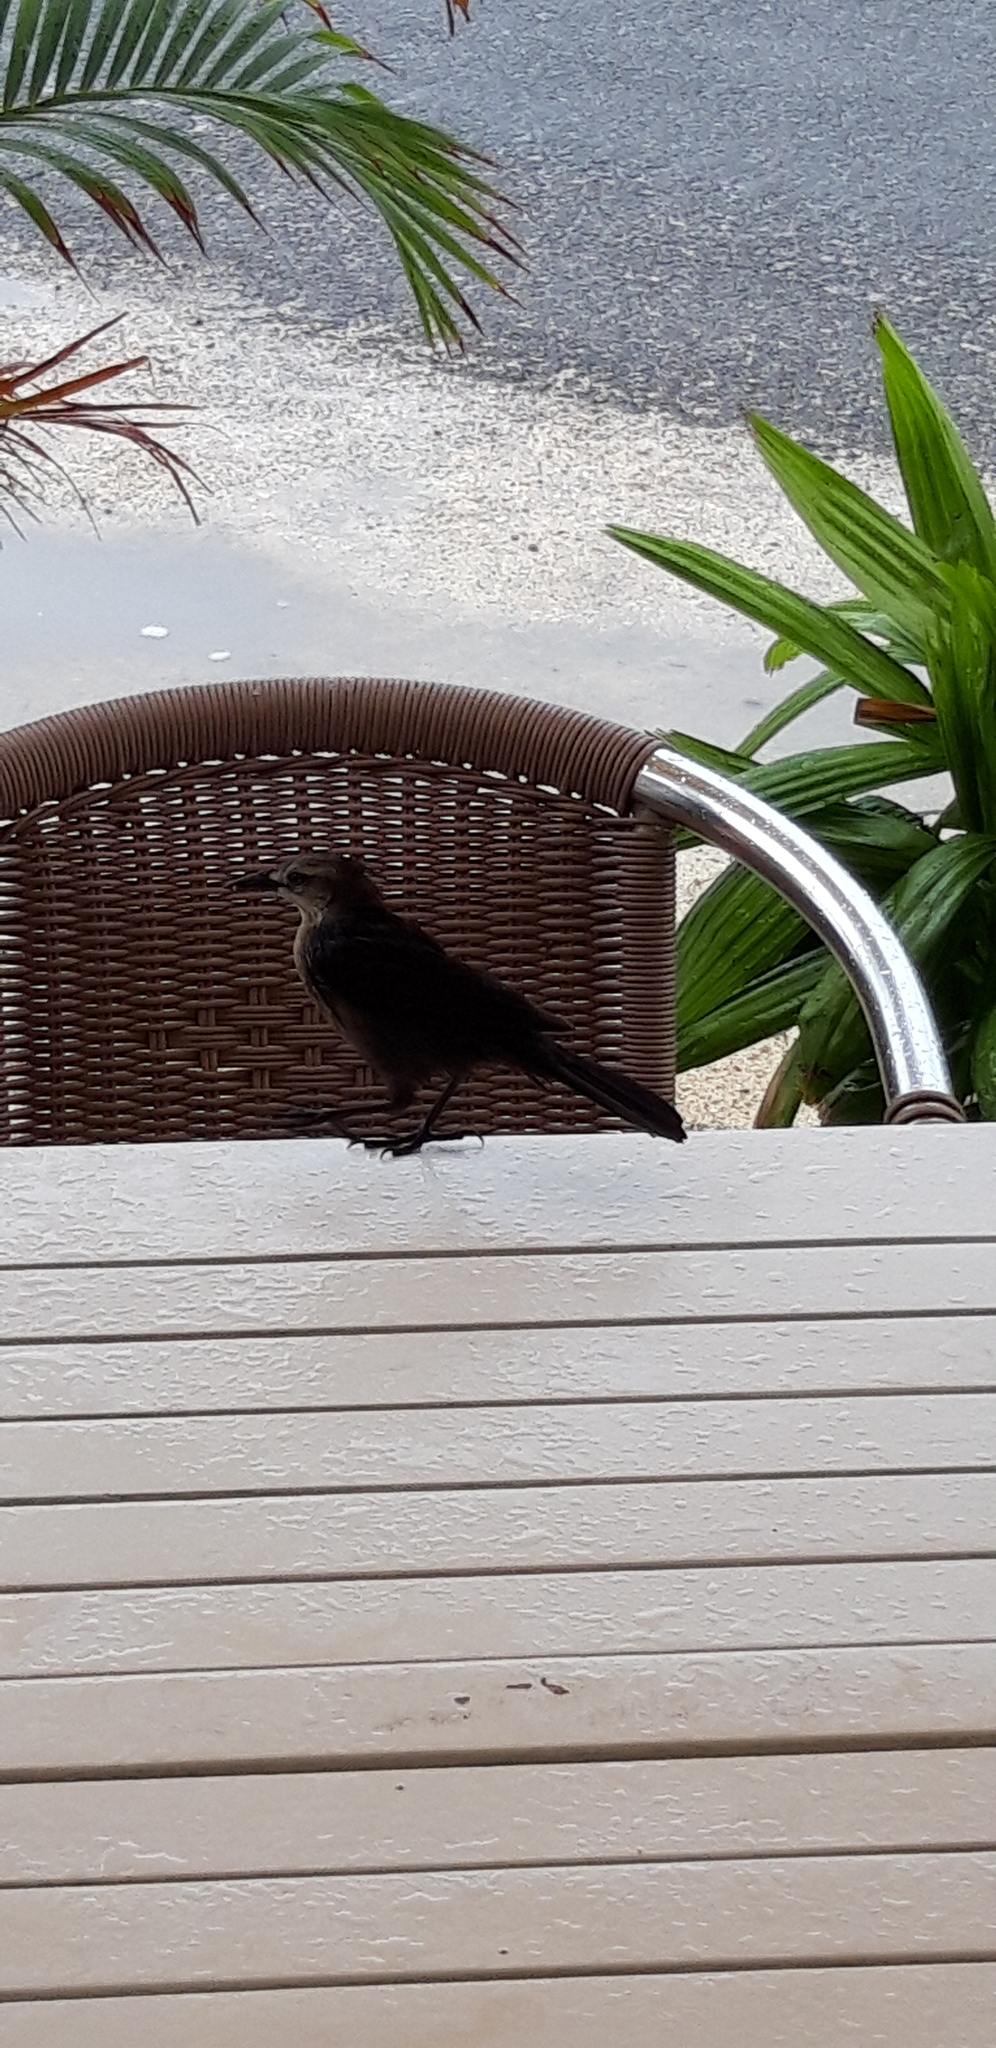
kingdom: Animalia
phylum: Chordata
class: Aves
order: Passeriformes
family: Icteridae
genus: Quiscalus
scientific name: Quiscalus lugubris
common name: Carib grackle
